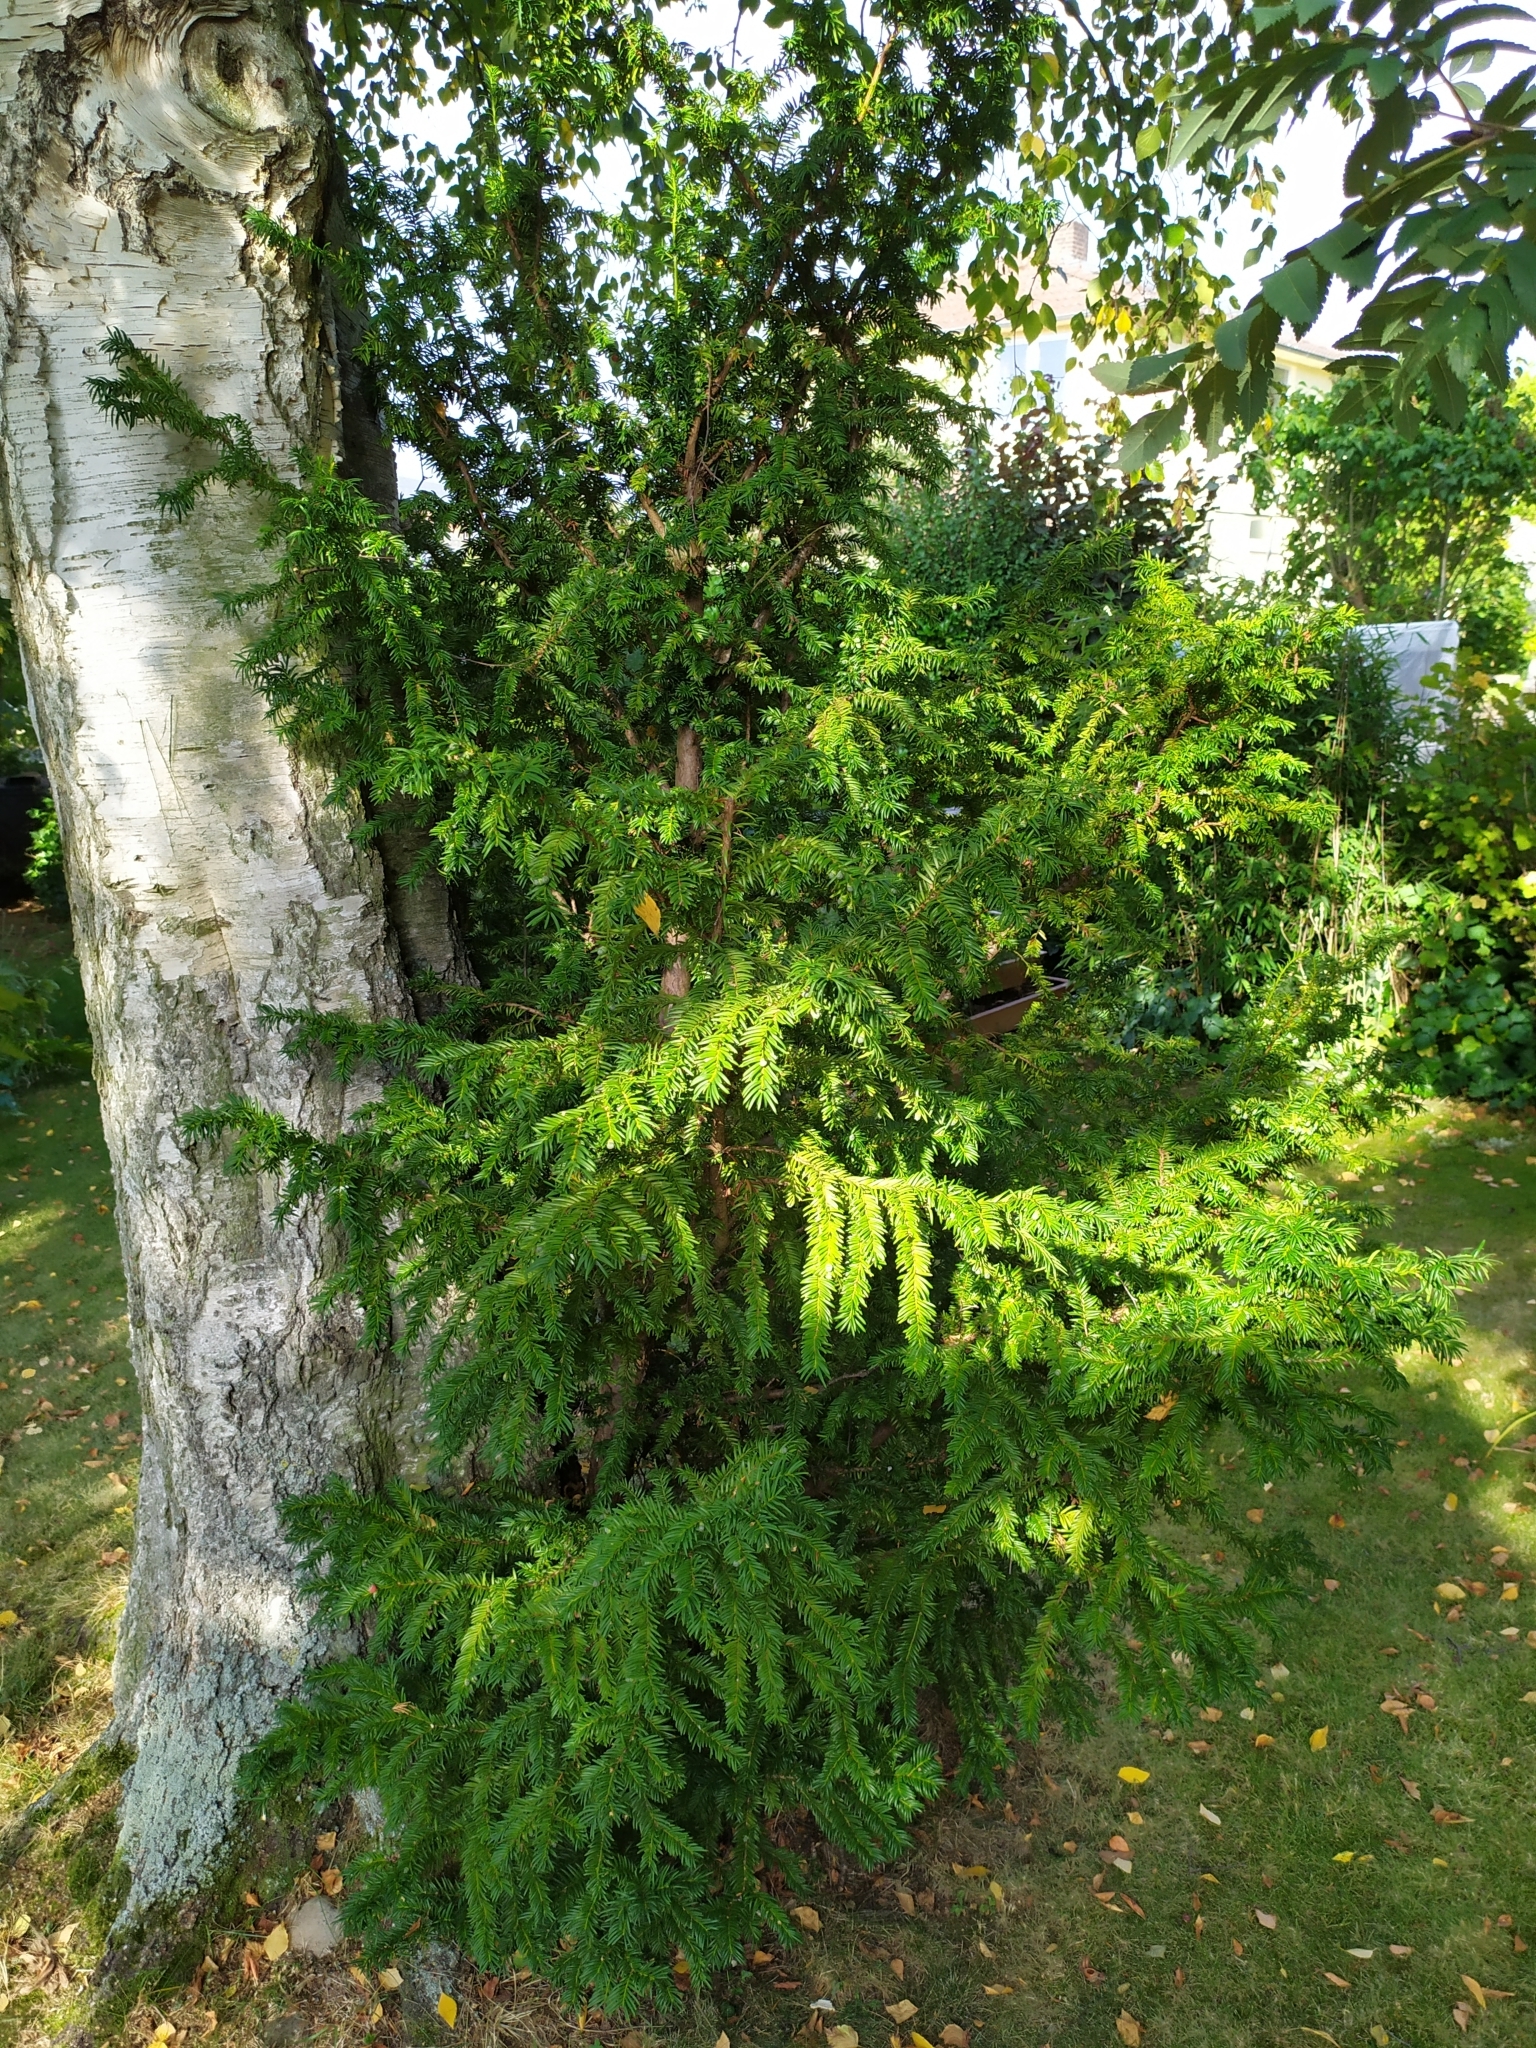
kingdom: Plantae
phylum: Tracheophyta
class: Pinopsida
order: Pinales
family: Taxaceae
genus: Taxus
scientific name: Taxus baccata
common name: Yew
